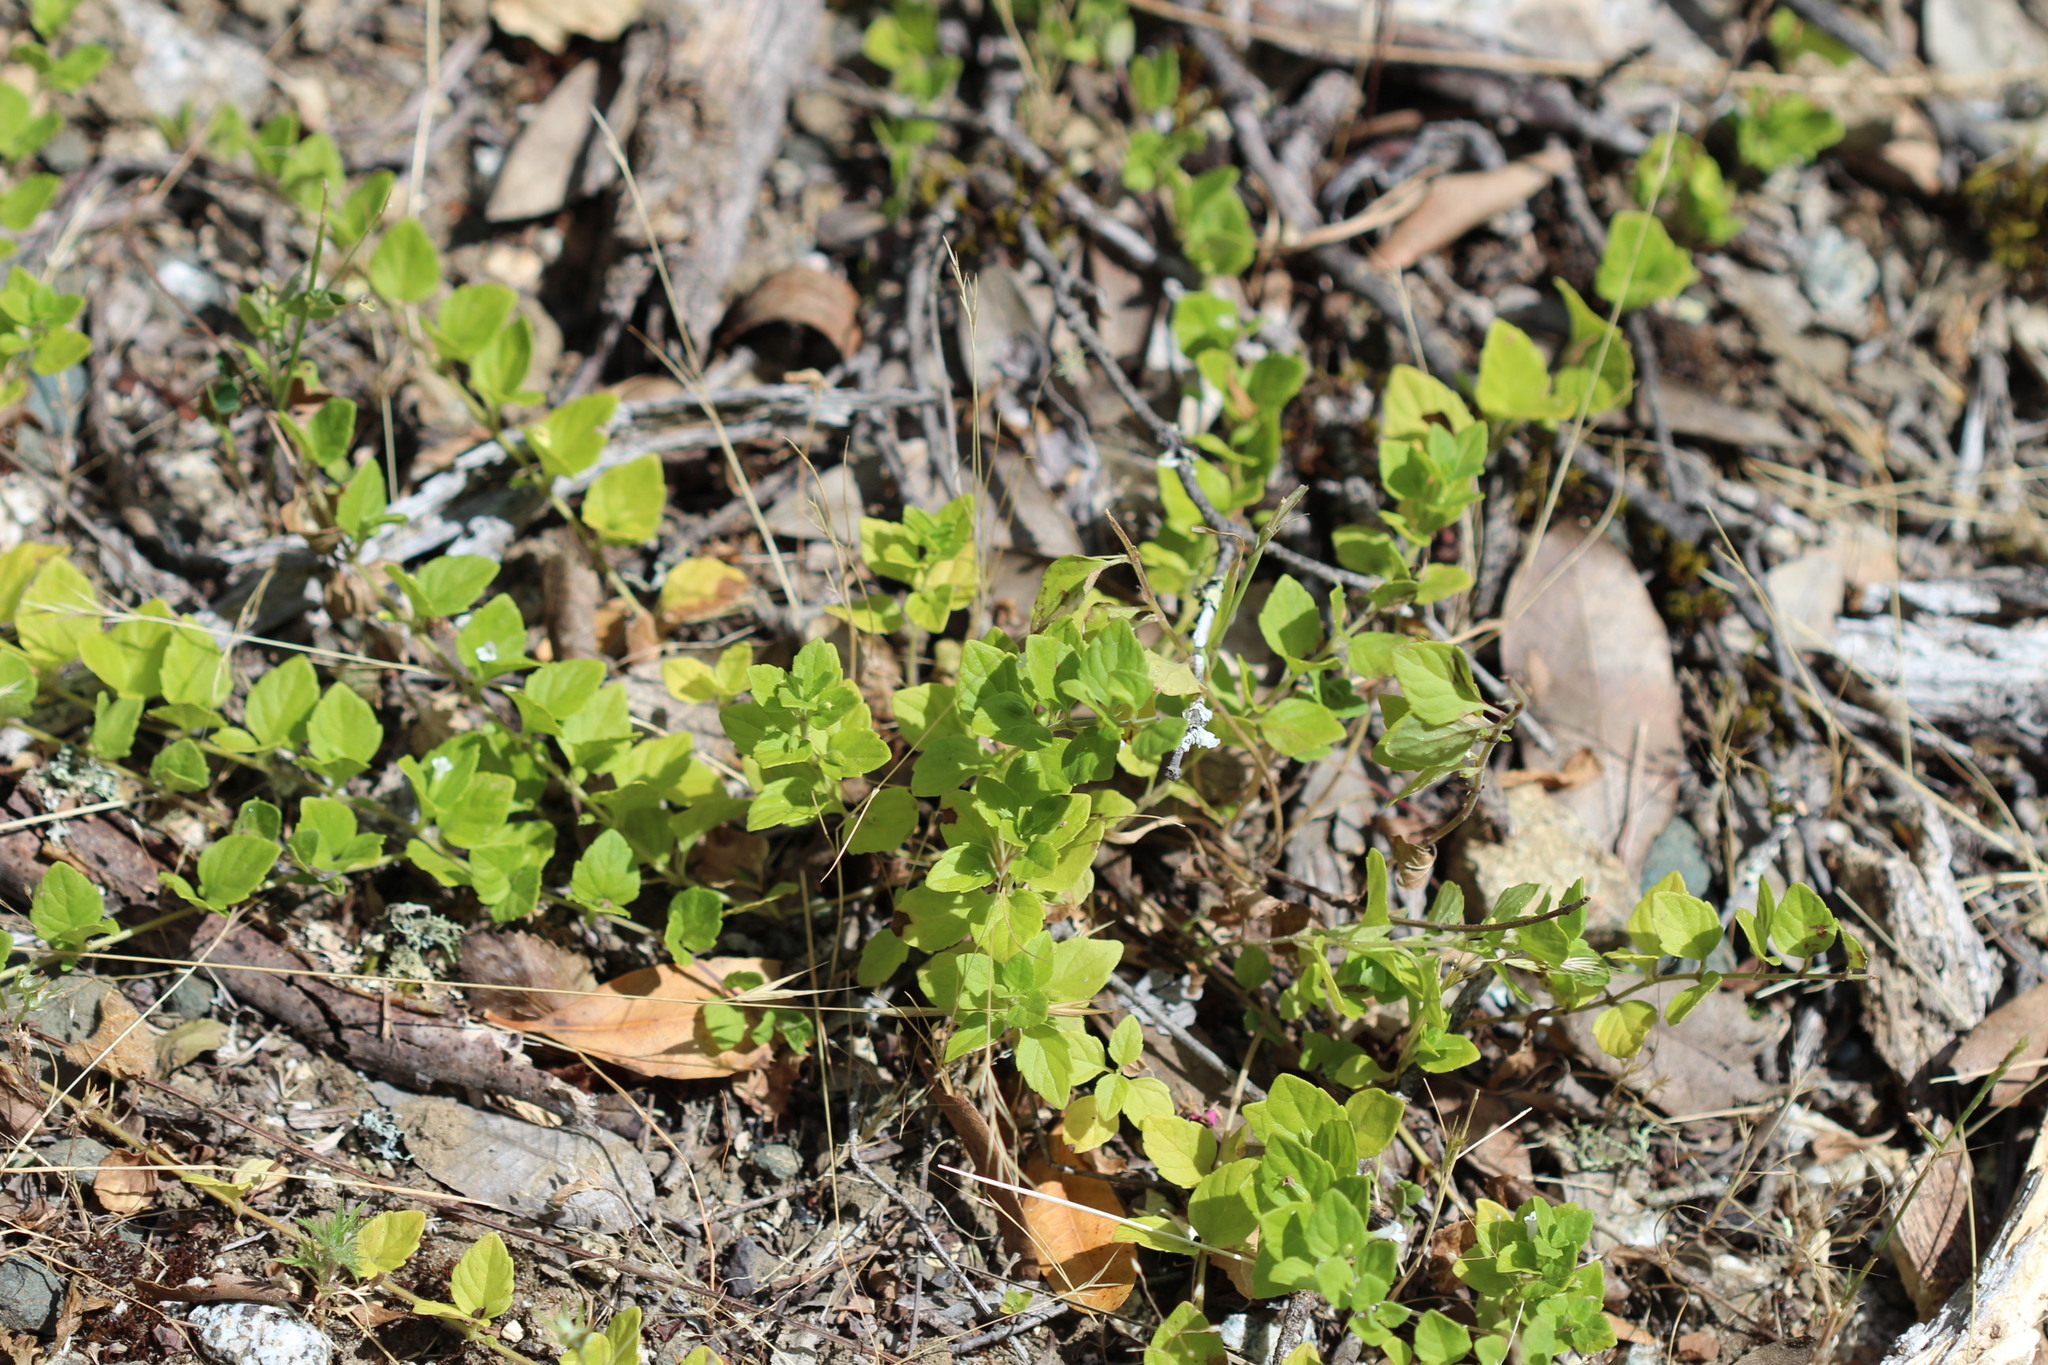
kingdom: Plantae
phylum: Tracheophyta
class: Magnoliopsida
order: Lamiales
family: Lamiaceae
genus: Micromeria
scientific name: Micromeria douglasii
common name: Yerba buena
